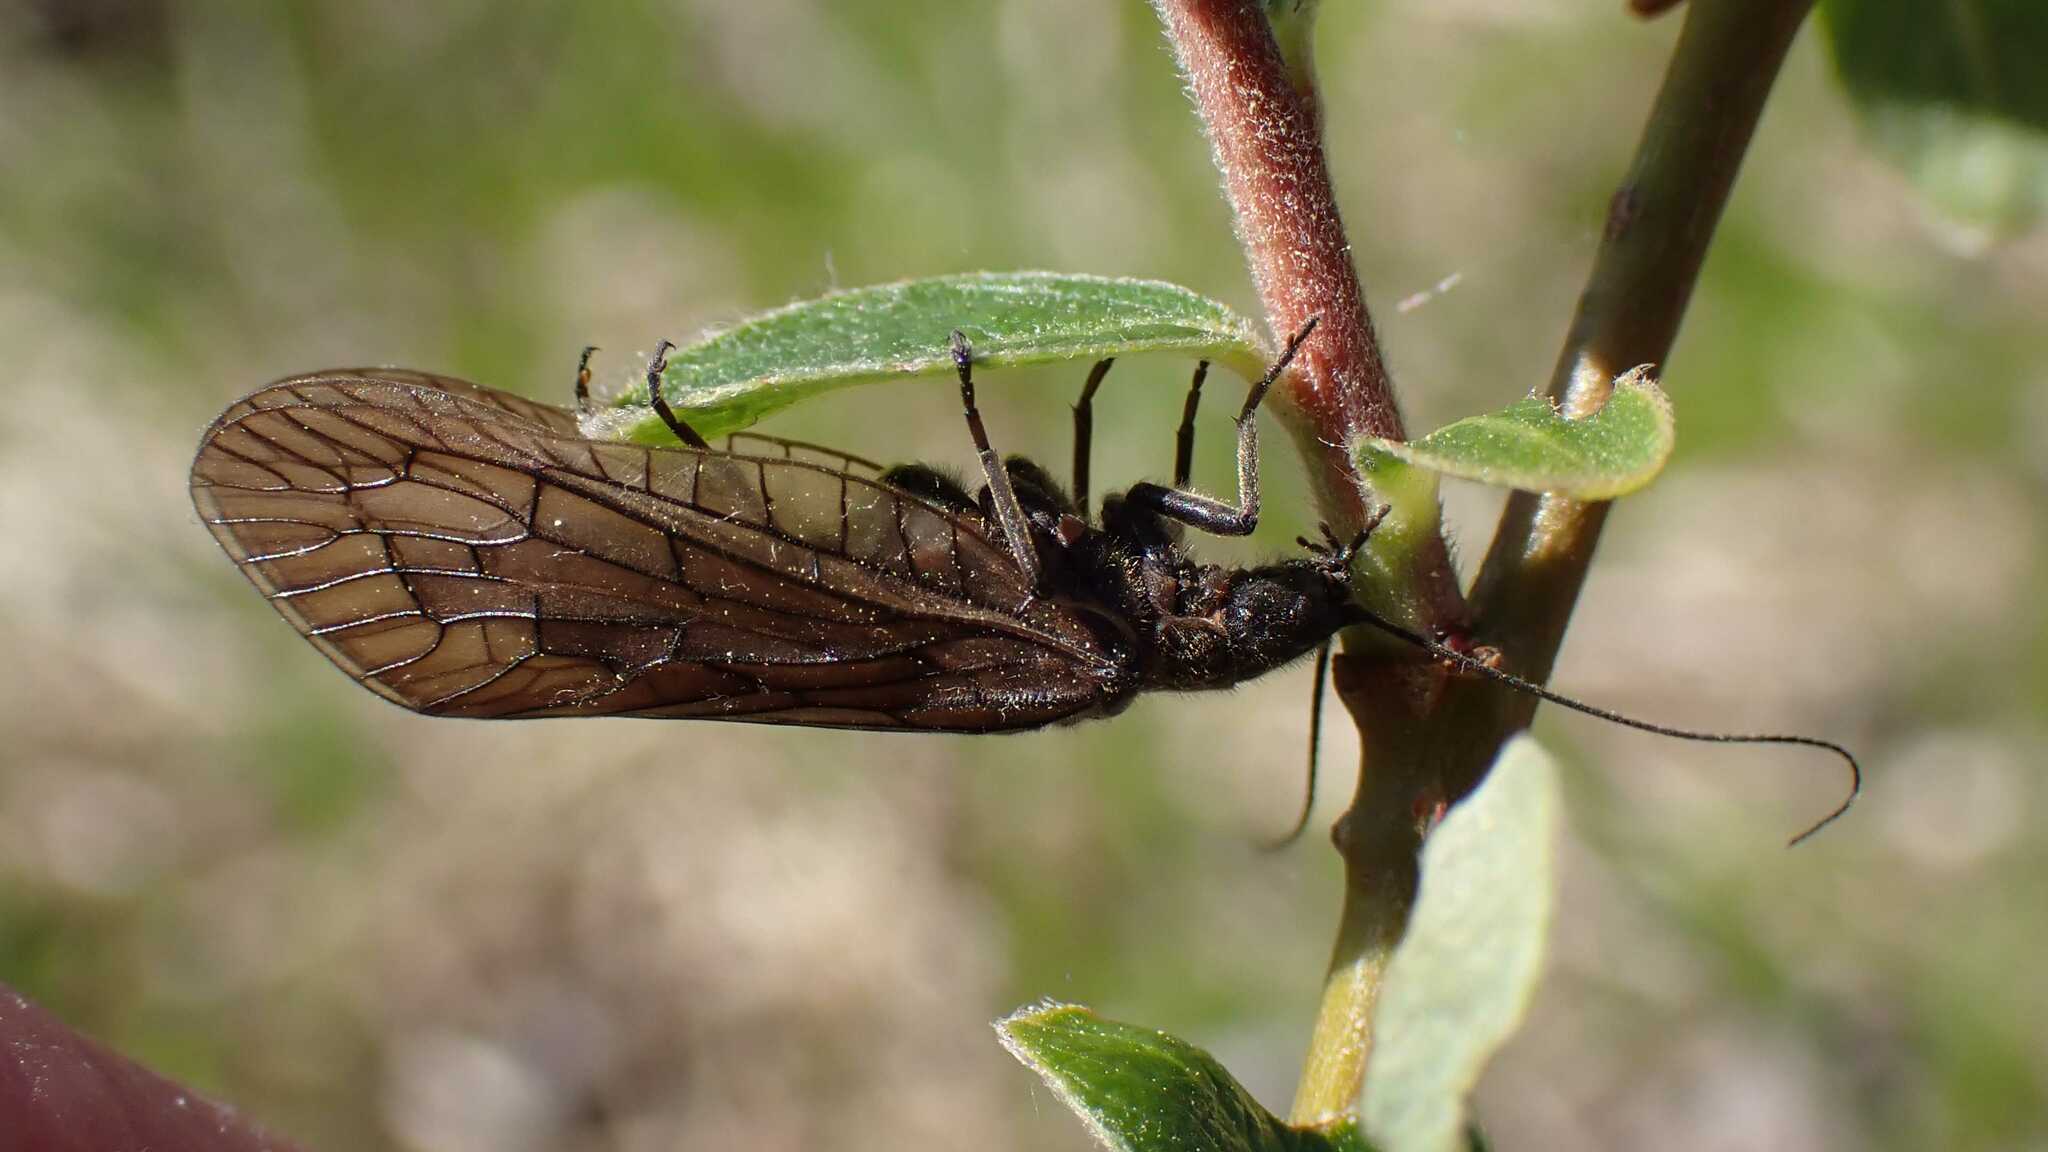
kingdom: Animalia
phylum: Arthropoda
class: Insecta
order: Megaloptera
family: Sialidae
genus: Sialis
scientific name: Sialis
